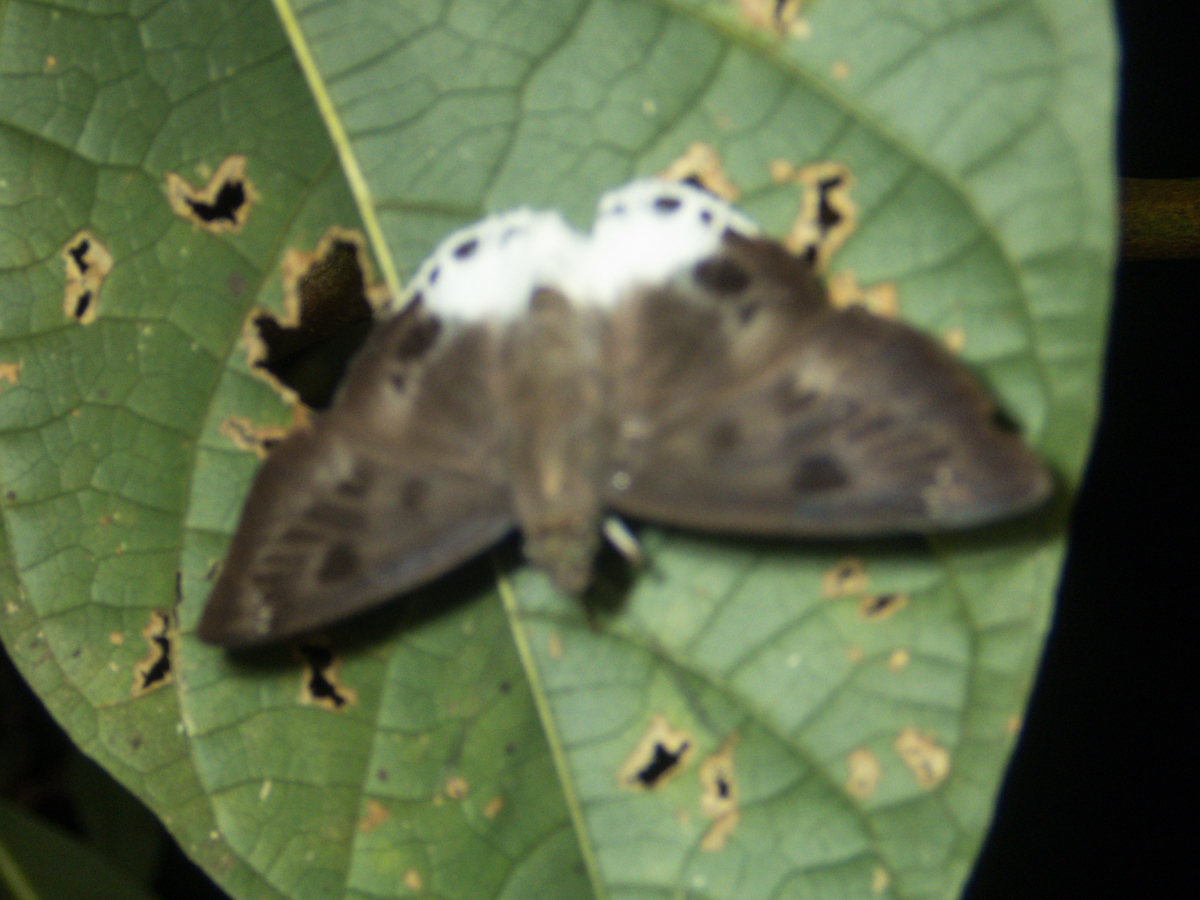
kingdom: Animalia
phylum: Arthropoda
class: Insecta
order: Lepidoptera
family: Hesperiidae
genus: Tagiades
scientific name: Tagiades parra
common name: Straight snow flat
